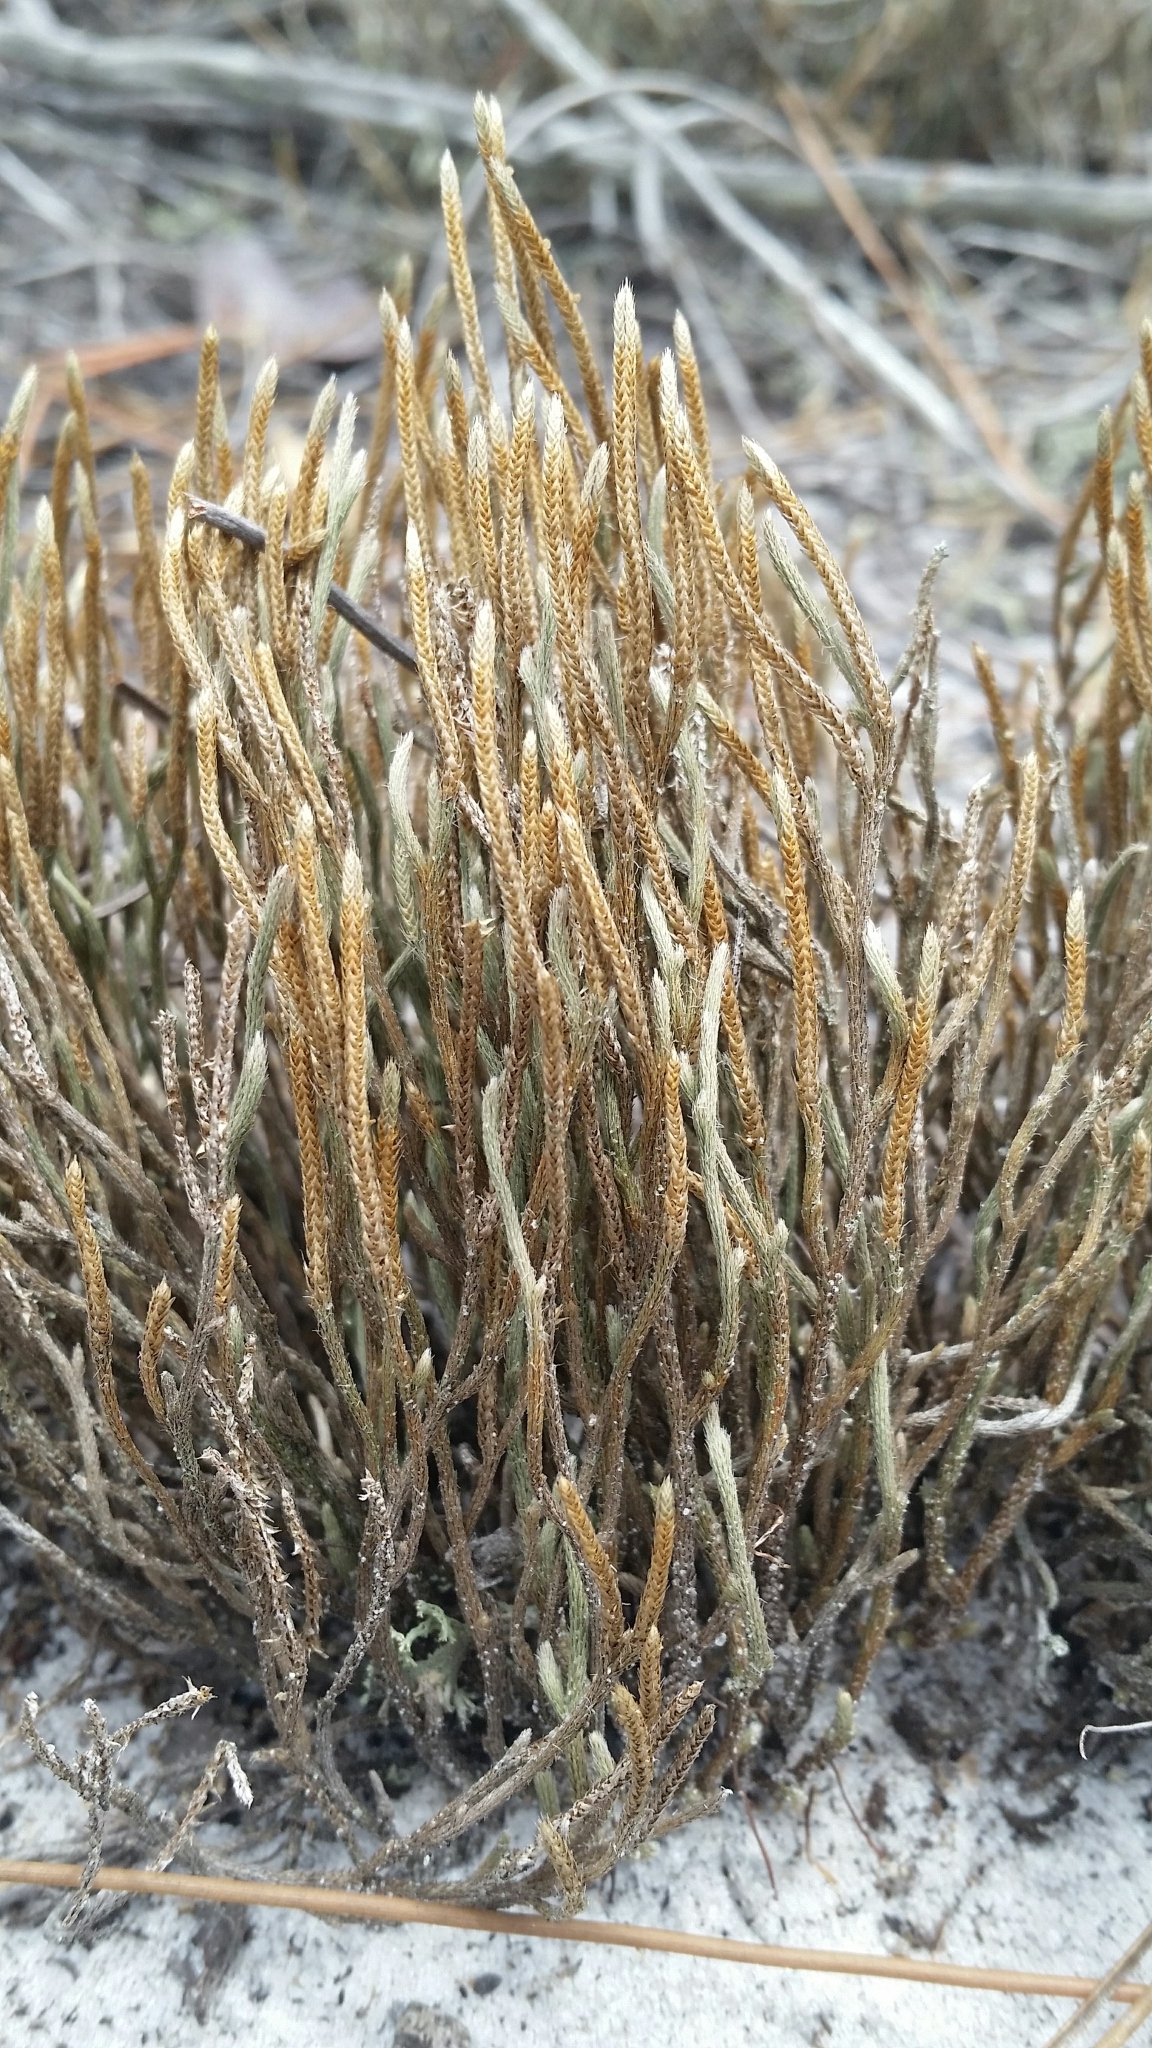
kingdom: Plantae
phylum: Tracheophyta
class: Lycopodiopsida
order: Selaginellales
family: Selaginellaceae
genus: Selaginella
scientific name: Selaginella arenicola
